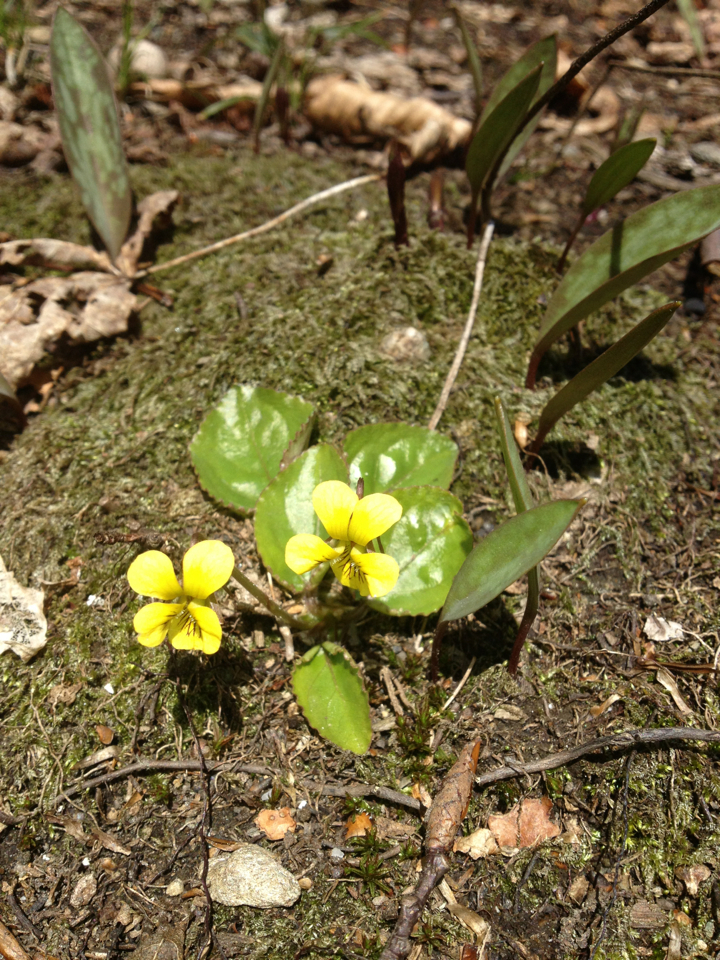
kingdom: Plantae
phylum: Tracheophyta
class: Magnoliopsida
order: Malpighiales
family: Violaceae
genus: Viola
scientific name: Viola rotundifolia
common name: Early yellow violet
